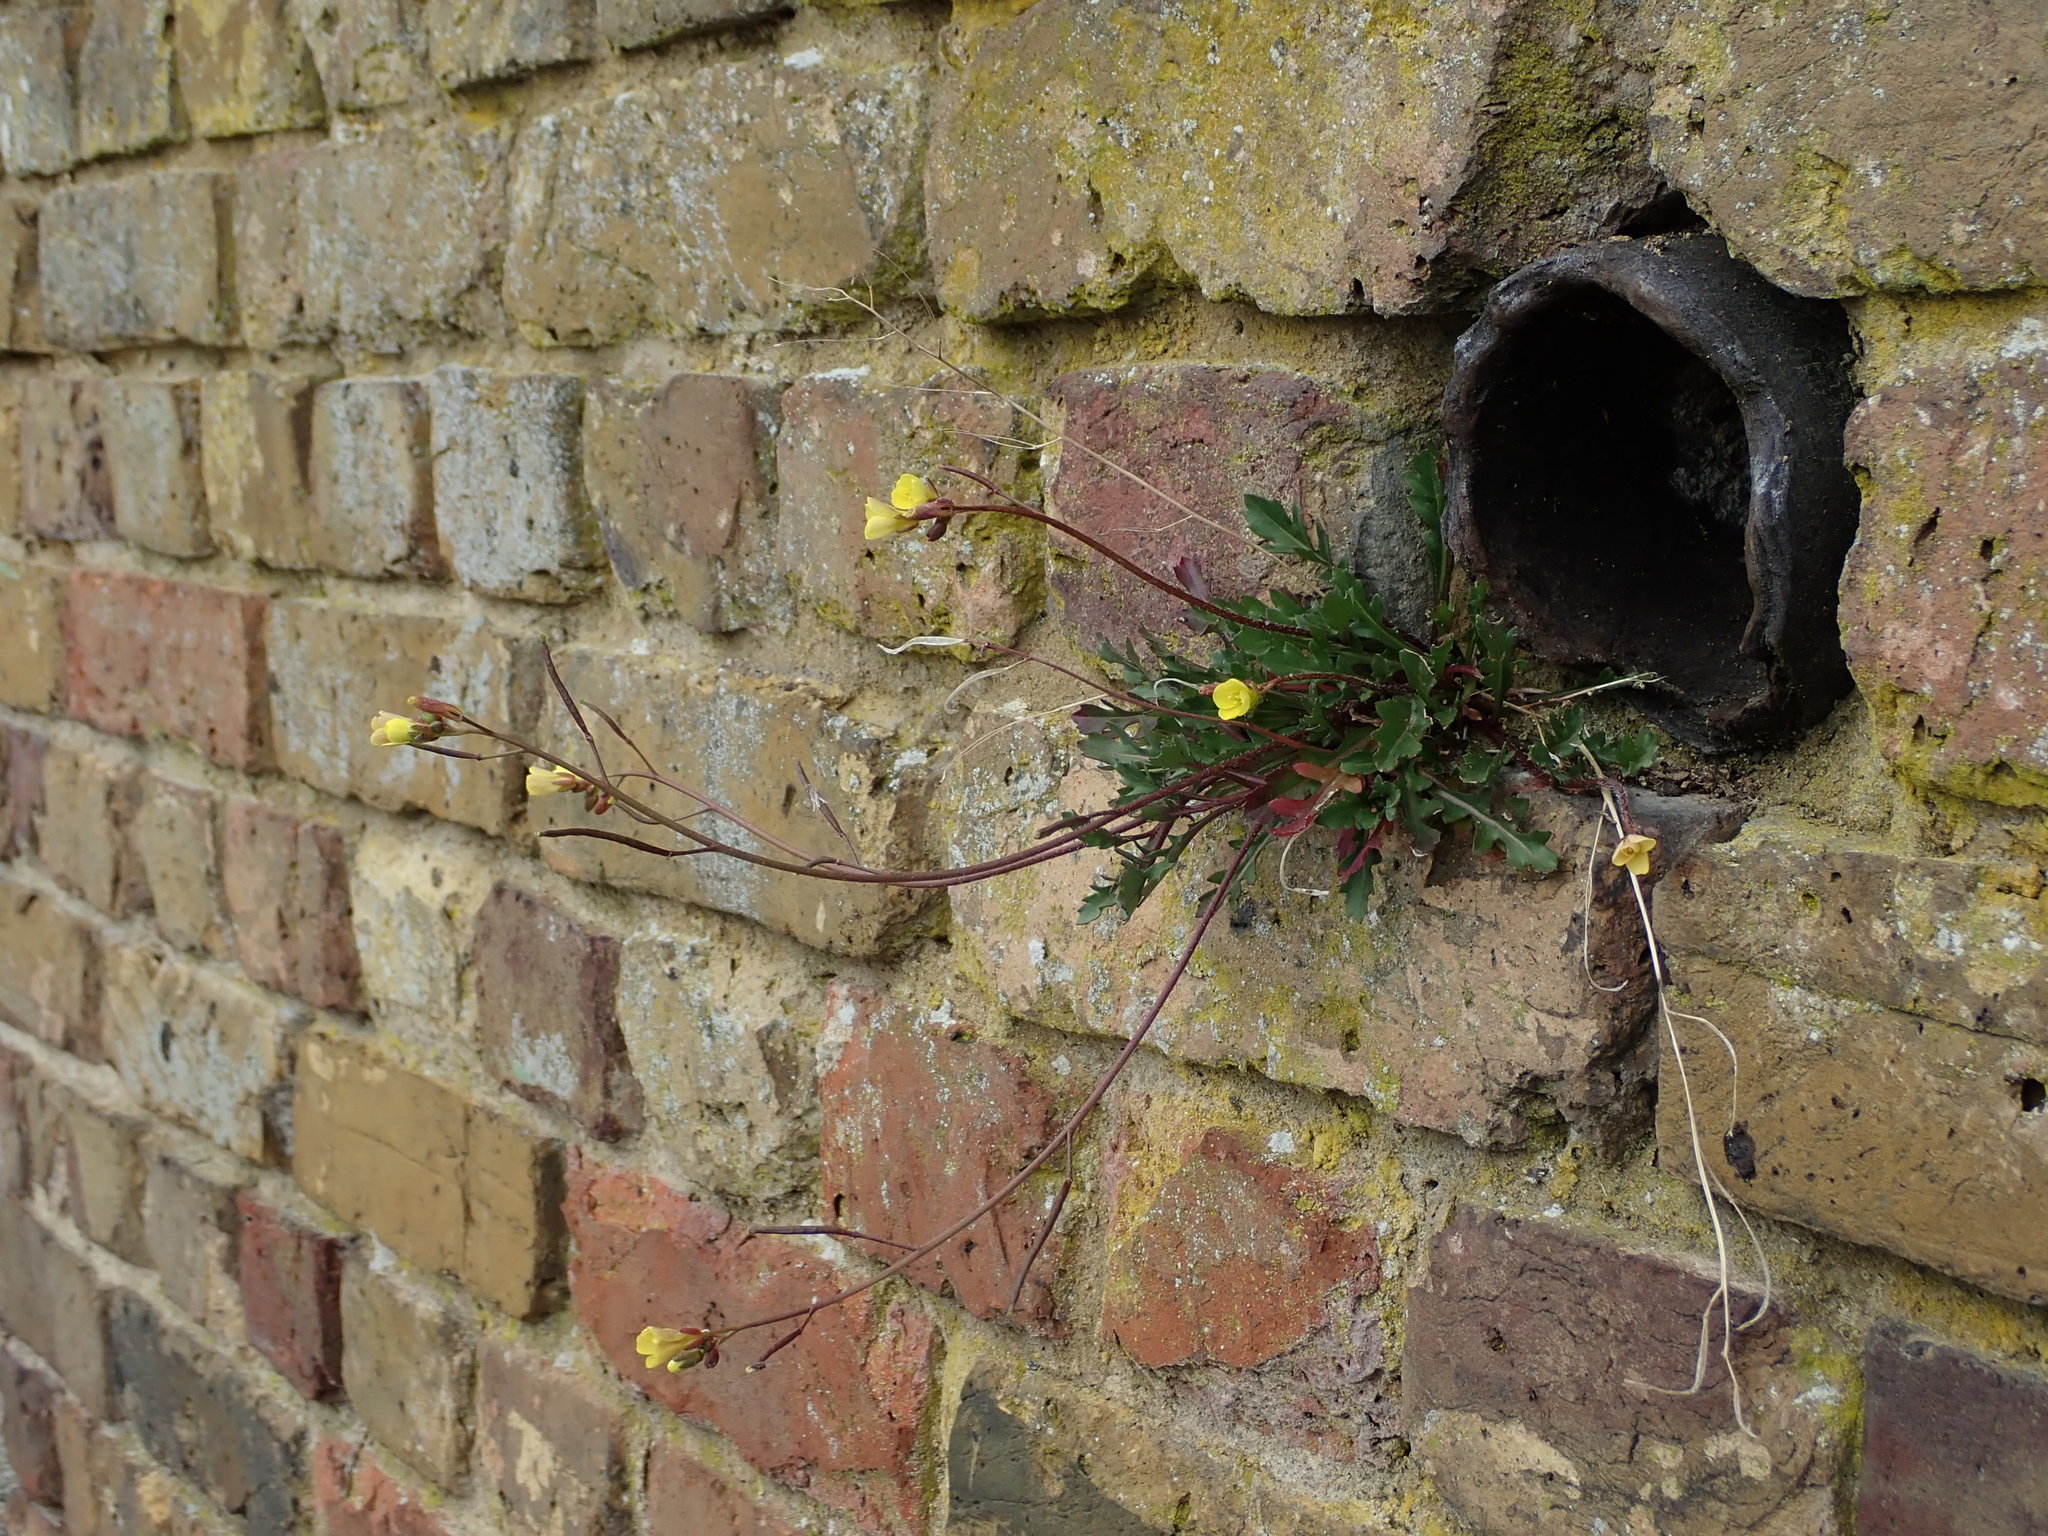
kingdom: Plantae
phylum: Tracheophyta
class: Magnoliopsida
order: Brassicales
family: Brassicaceae
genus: Diplotaxis
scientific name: Diplotaxis muralis
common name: Annual wall-rocket
